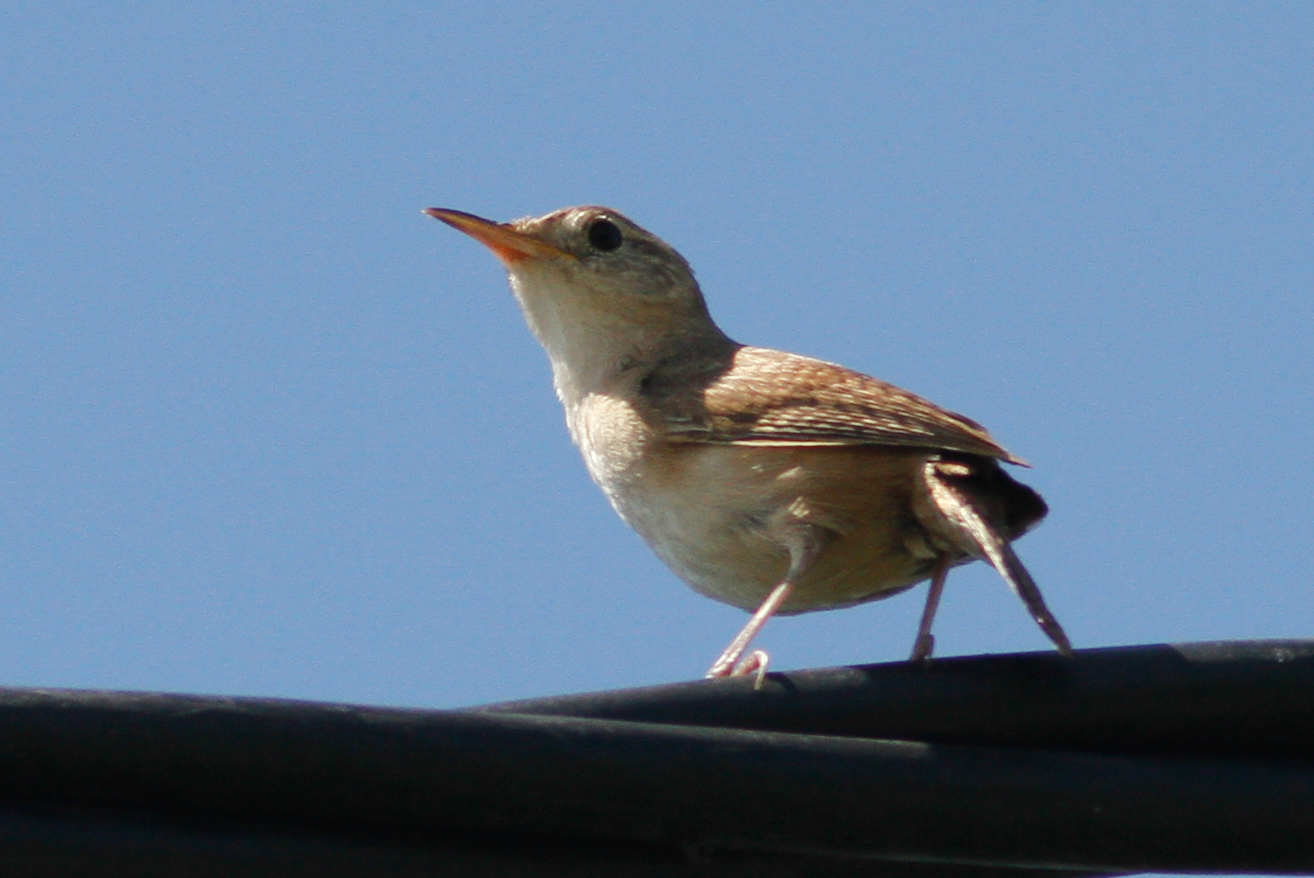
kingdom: Animalia
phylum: Chordata
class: Aves
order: Passeriformes
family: Troglodytidae
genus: Troglodytes
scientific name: Troglodytes aedon
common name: House wren
